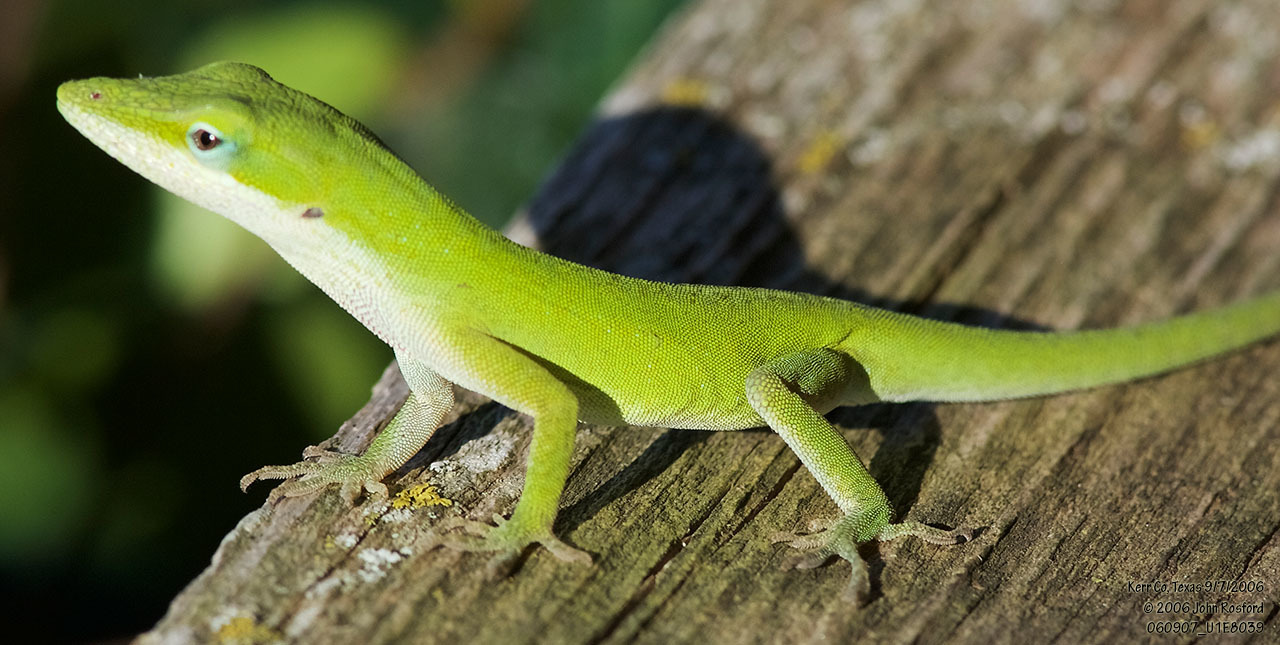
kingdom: Animalia
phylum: Chordata
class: Squamata
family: Dactyloidae
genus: Anolis
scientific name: Anolis carolinensis
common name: Green anole
